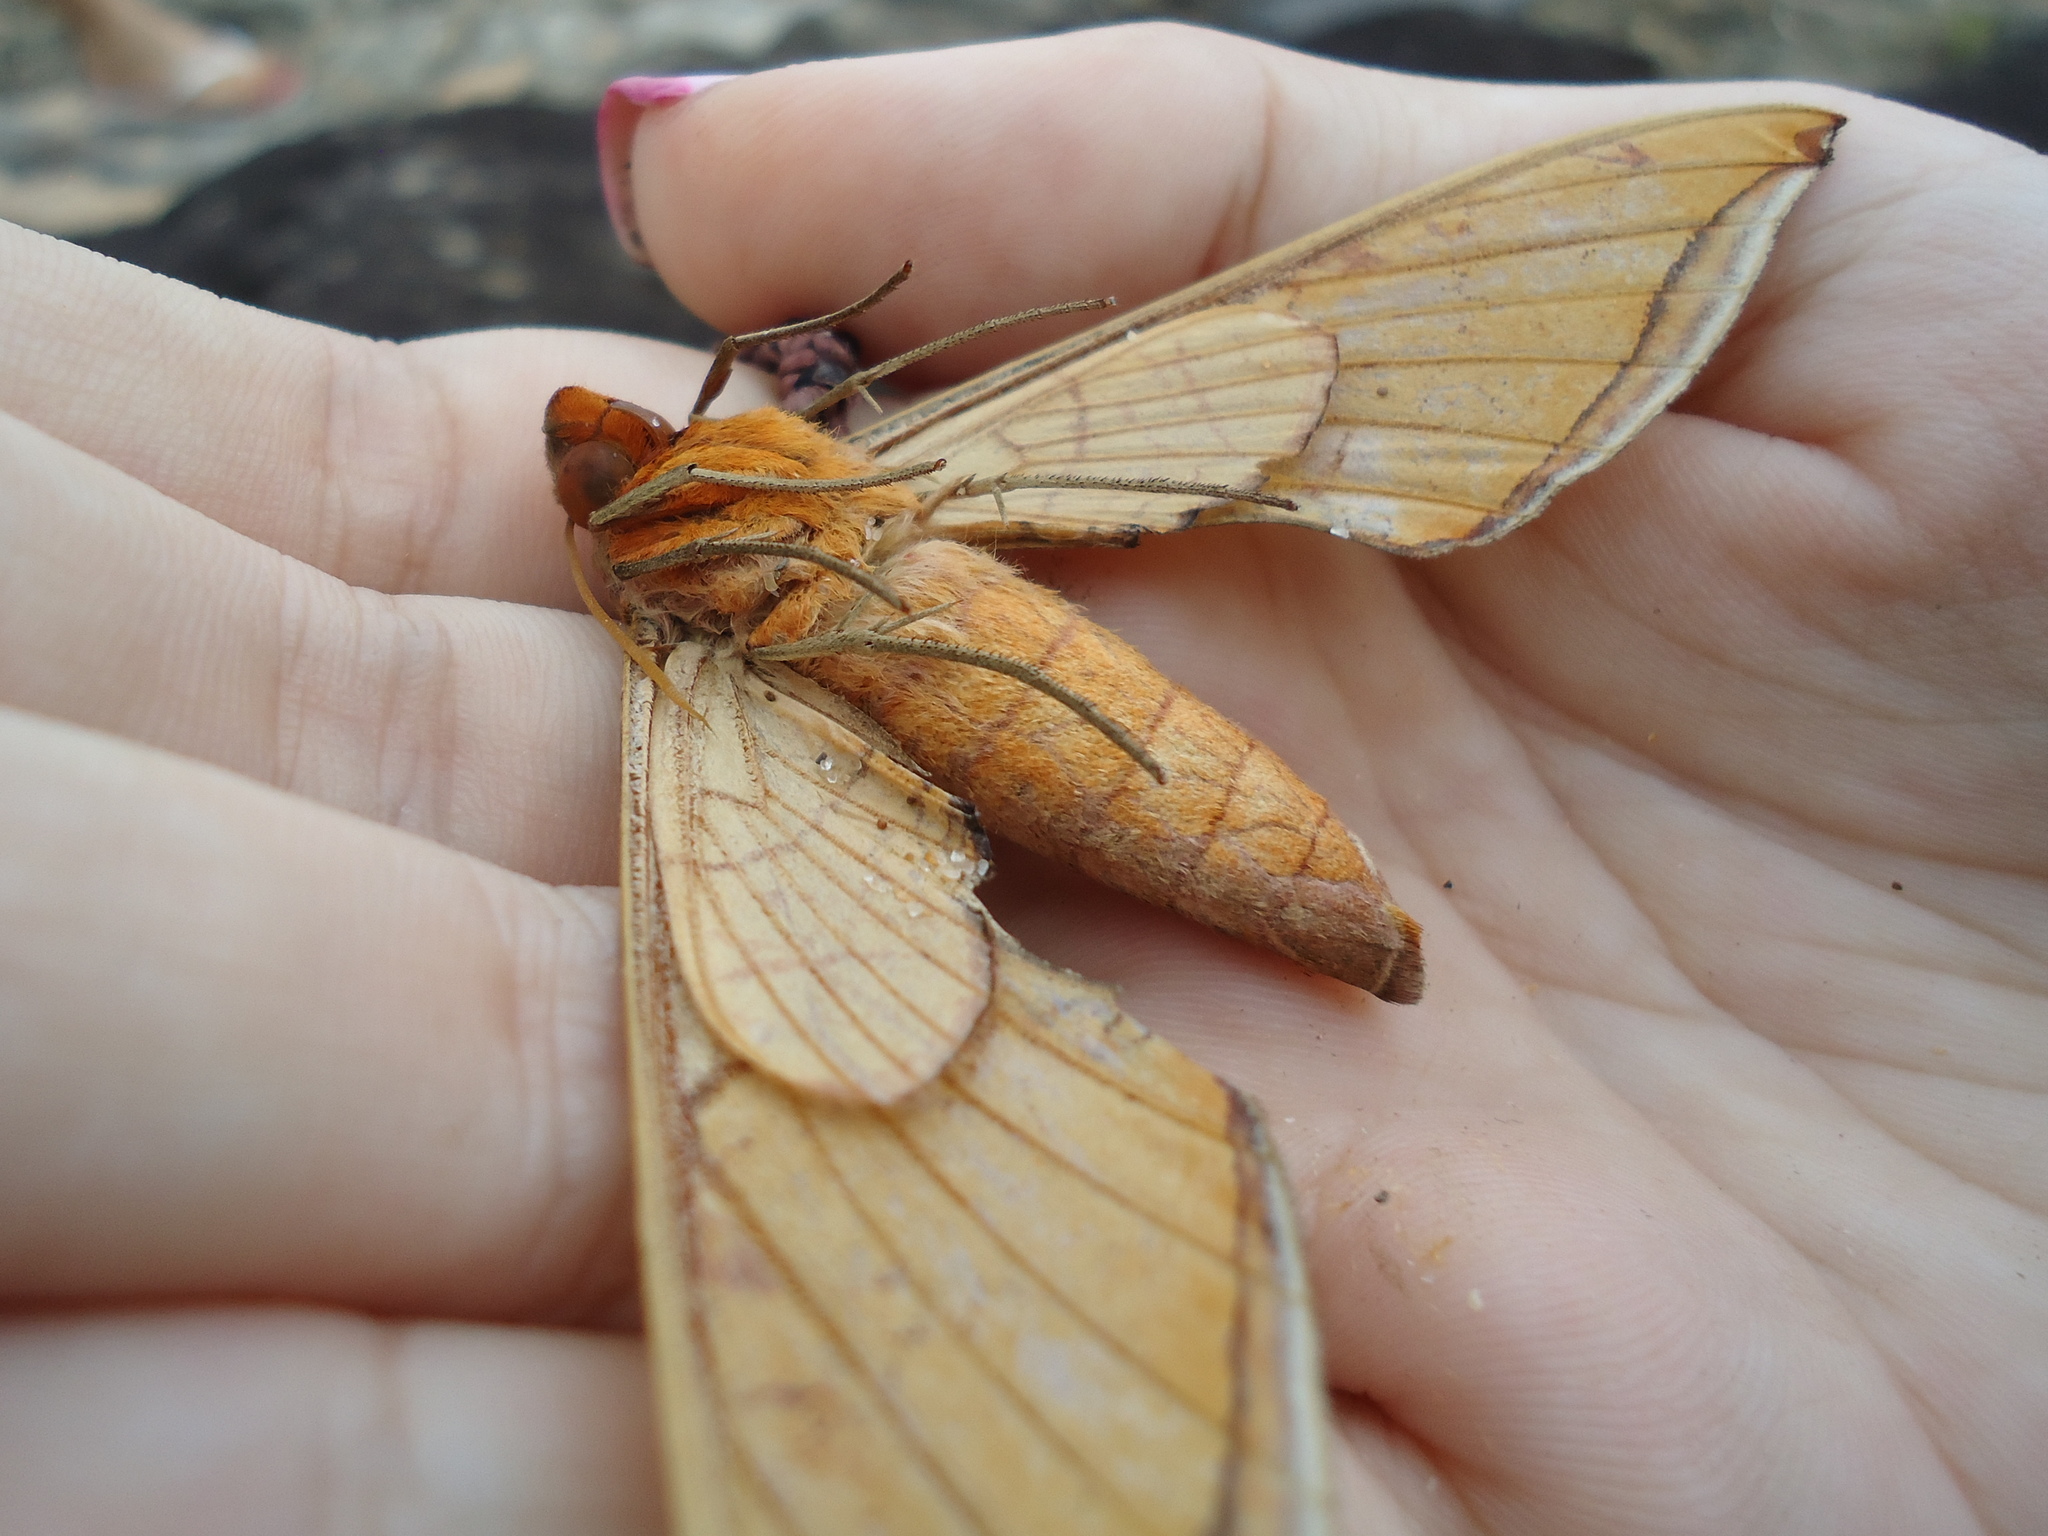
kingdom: Animalia
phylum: Arthropoda
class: Insecta
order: Lepidoptera
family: Sphingidae
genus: Protambulyx
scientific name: Protambulyx strigilis
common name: Streaked sphinx
